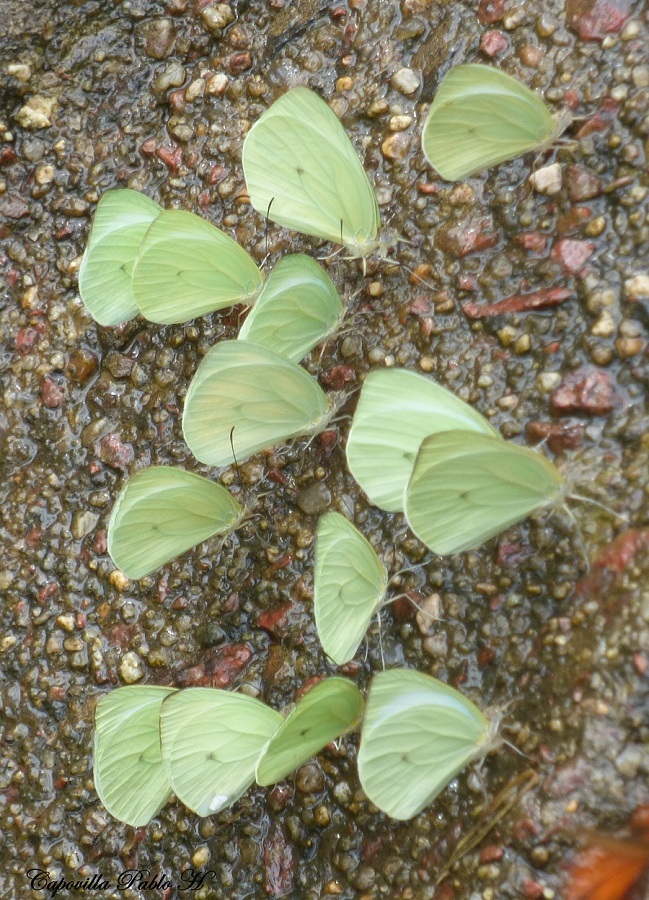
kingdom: Animalia
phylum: Arthropoda
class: Insecta
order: Lepidoptera
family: Pieridae
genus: Pseudopieris
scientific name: Pseudopieris nehemia
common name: Clean mimic-white
